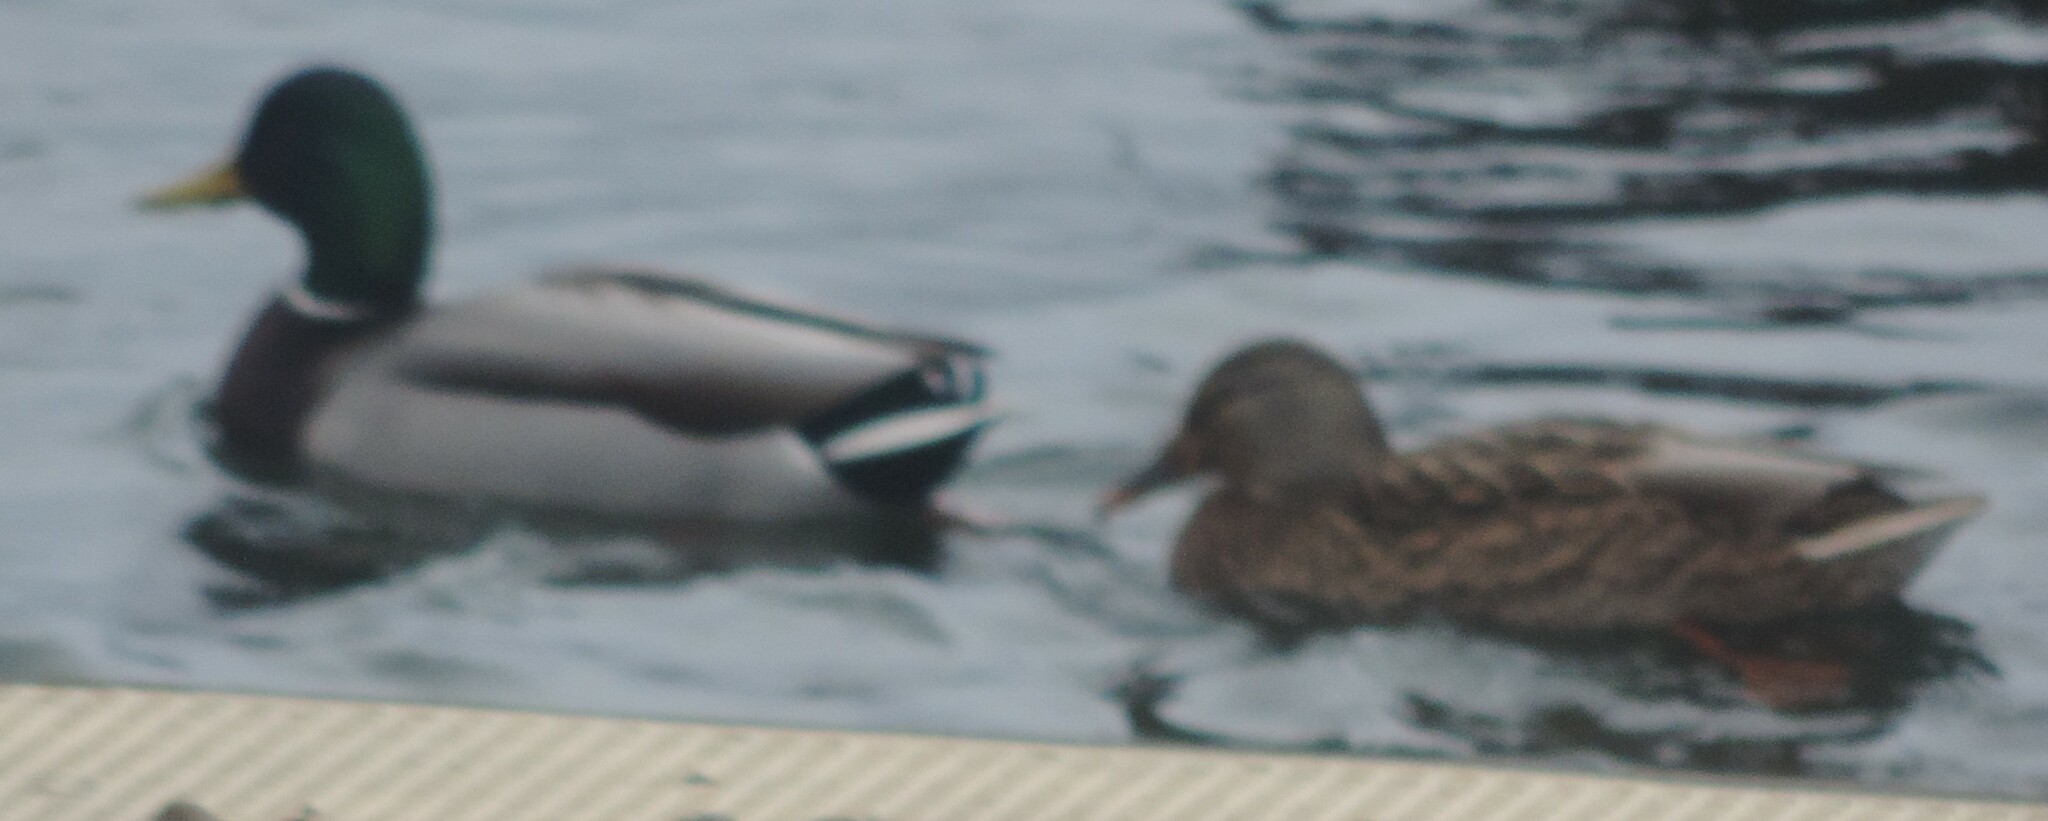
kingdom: Animalia
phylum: Chordata
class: Aves
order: Anseriformes
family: Anatidae
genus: Anas
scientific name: Anas platyrhynchos
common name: Mallard
